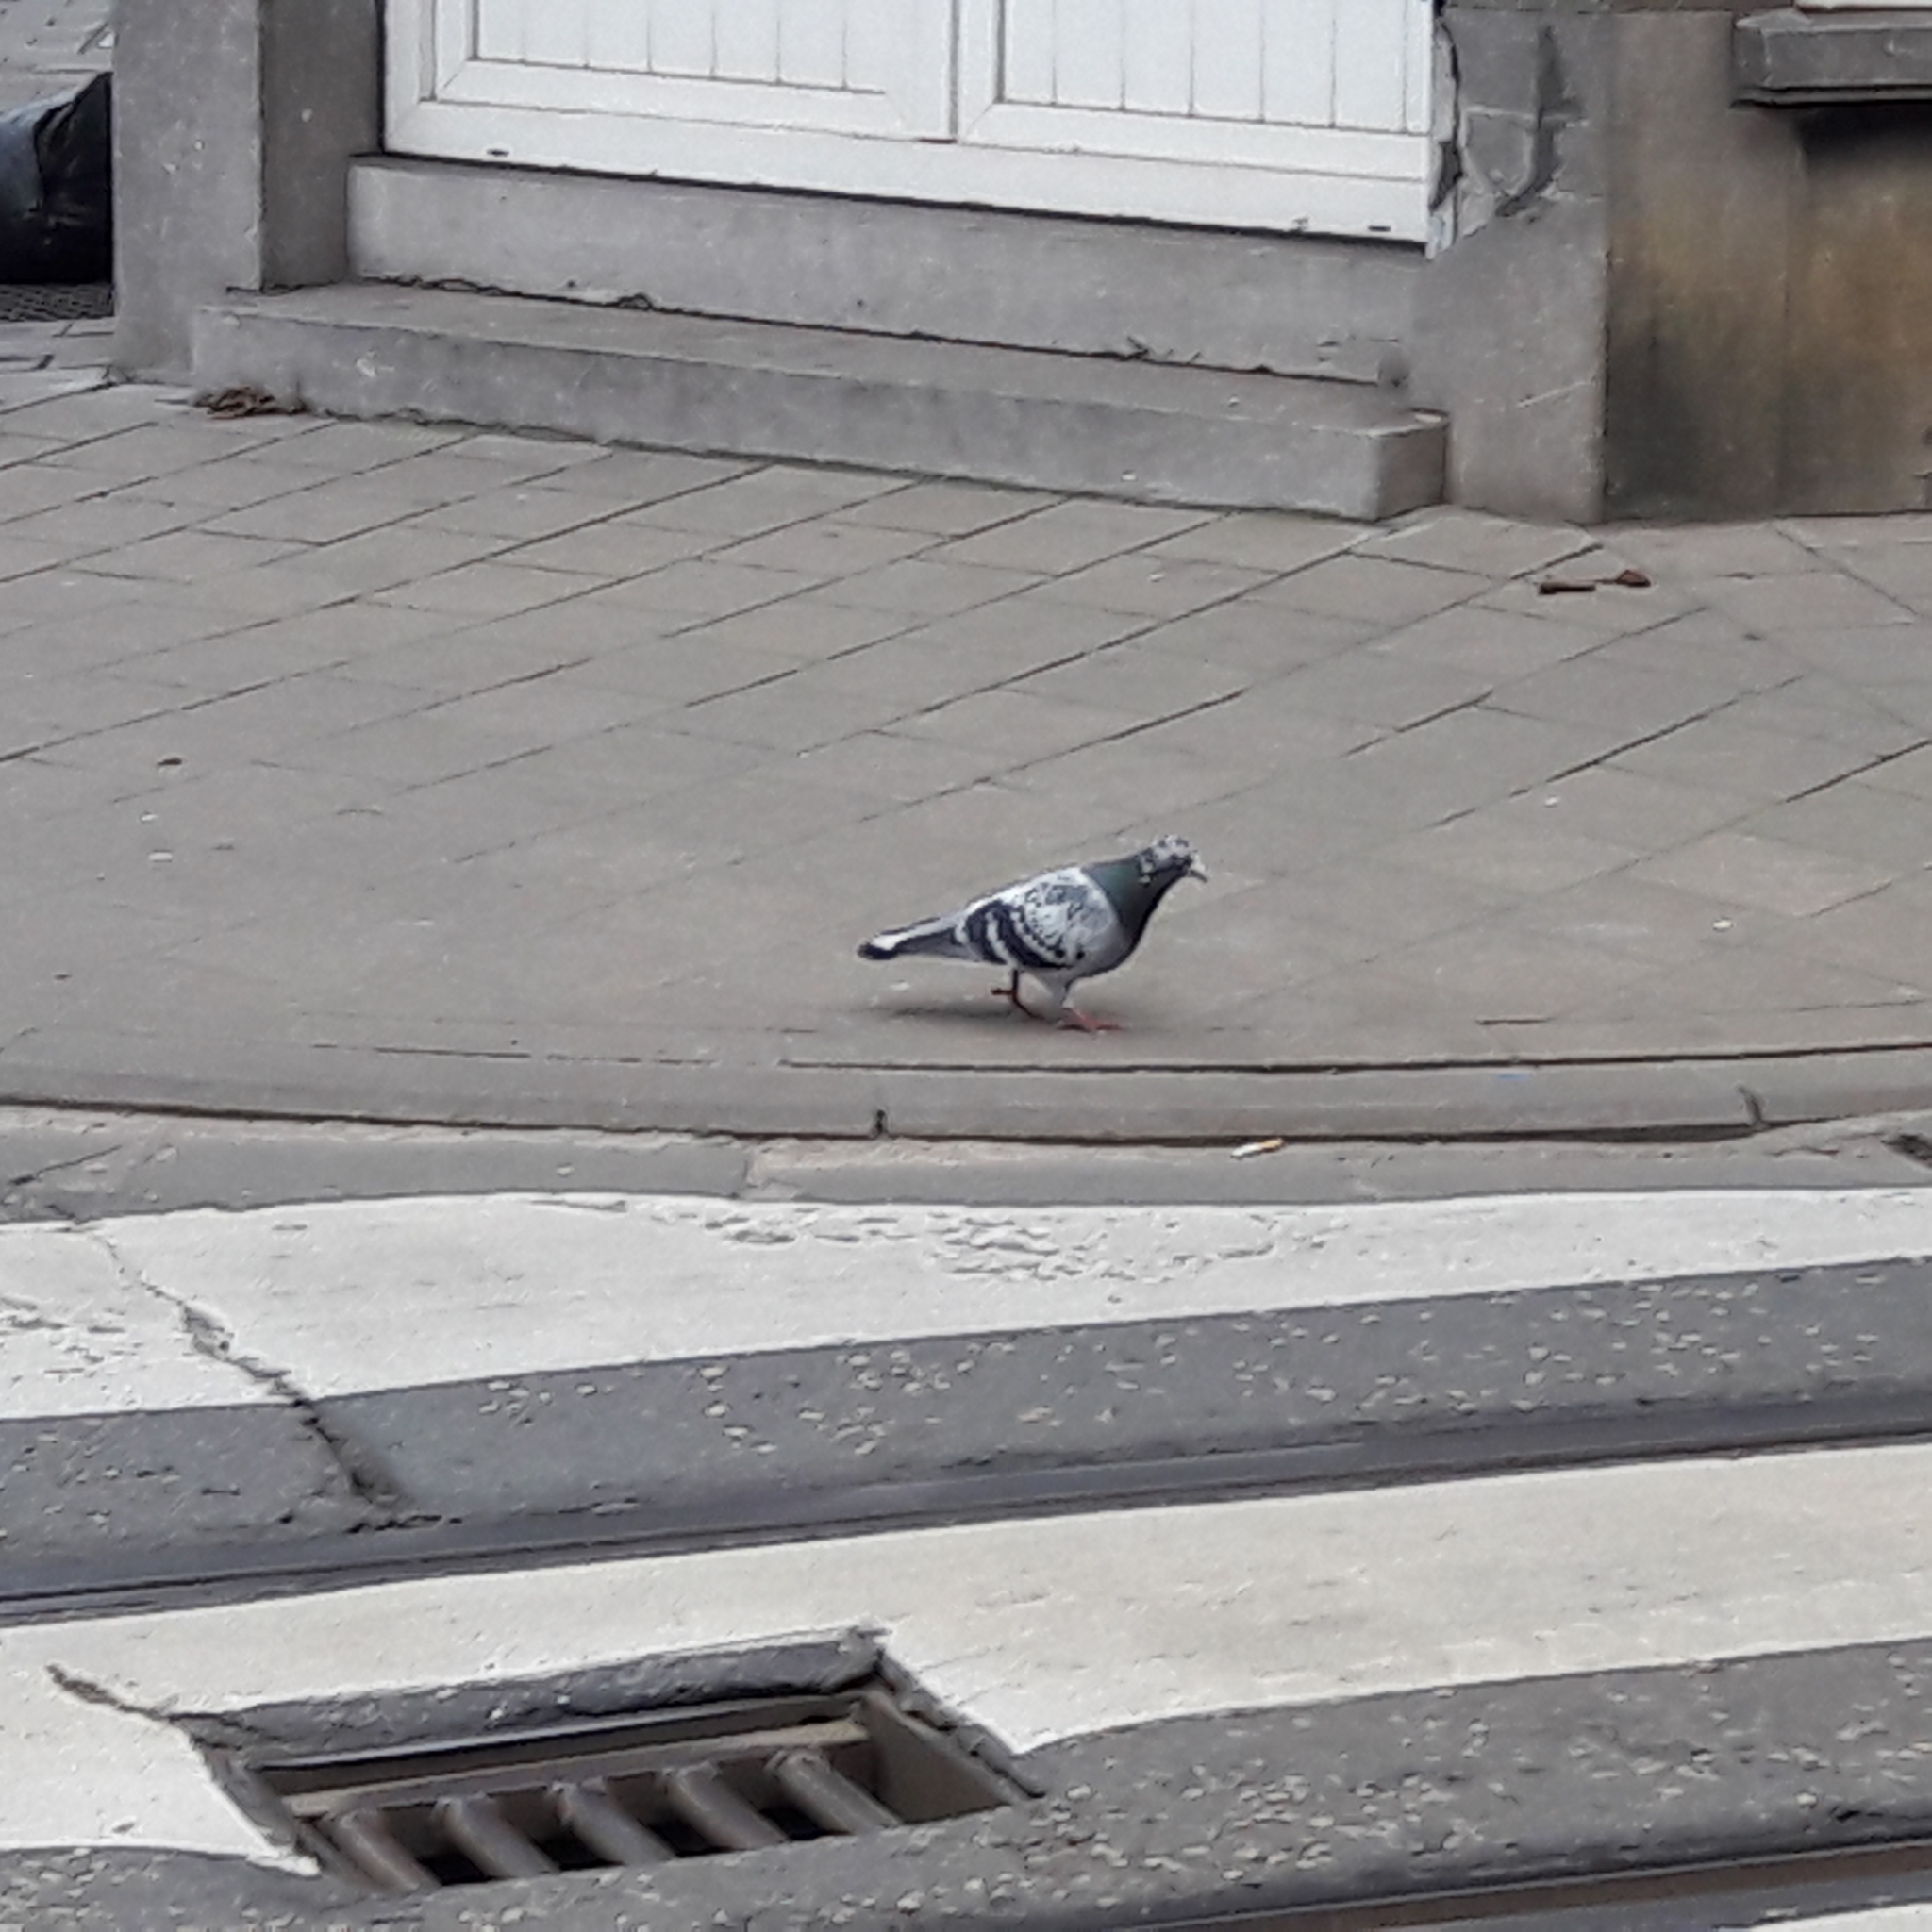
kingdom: Animalia
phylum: Chordata
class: Aves
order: Columbiformes
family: Columbidae
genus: Columba
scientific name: Columba livia
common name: Rock pigeon
